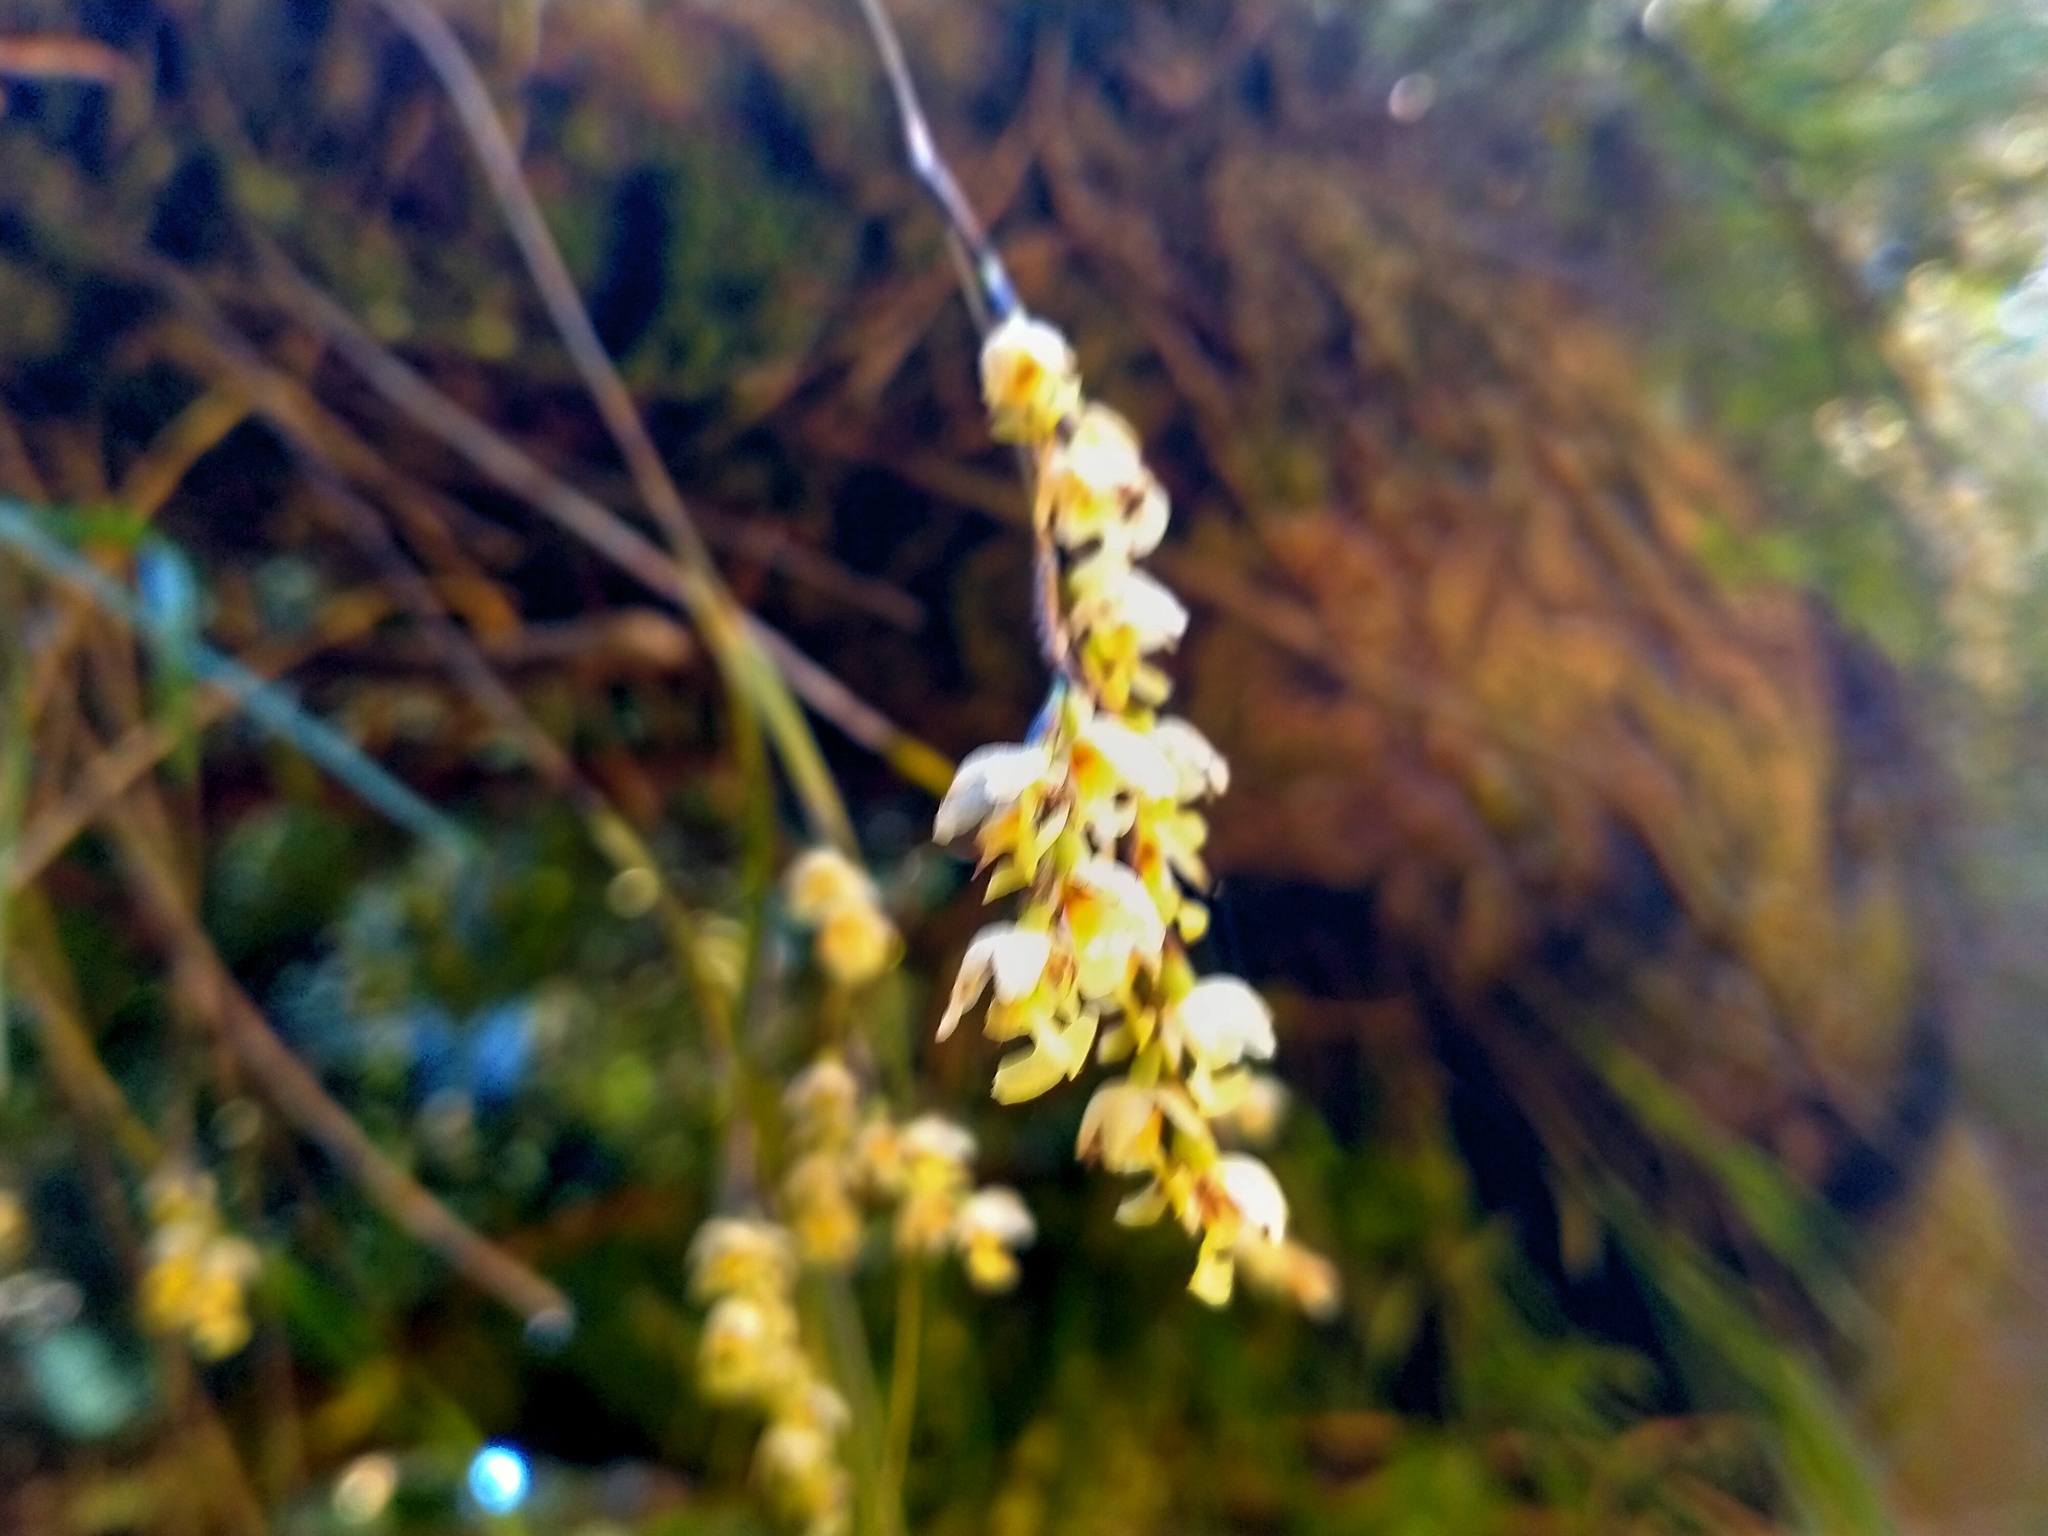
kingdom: Plantae
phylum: Tracheophyta
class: Liliopsida
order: Asparagales
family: Orchidaceae
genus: Earina
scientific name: Earina mucronata
